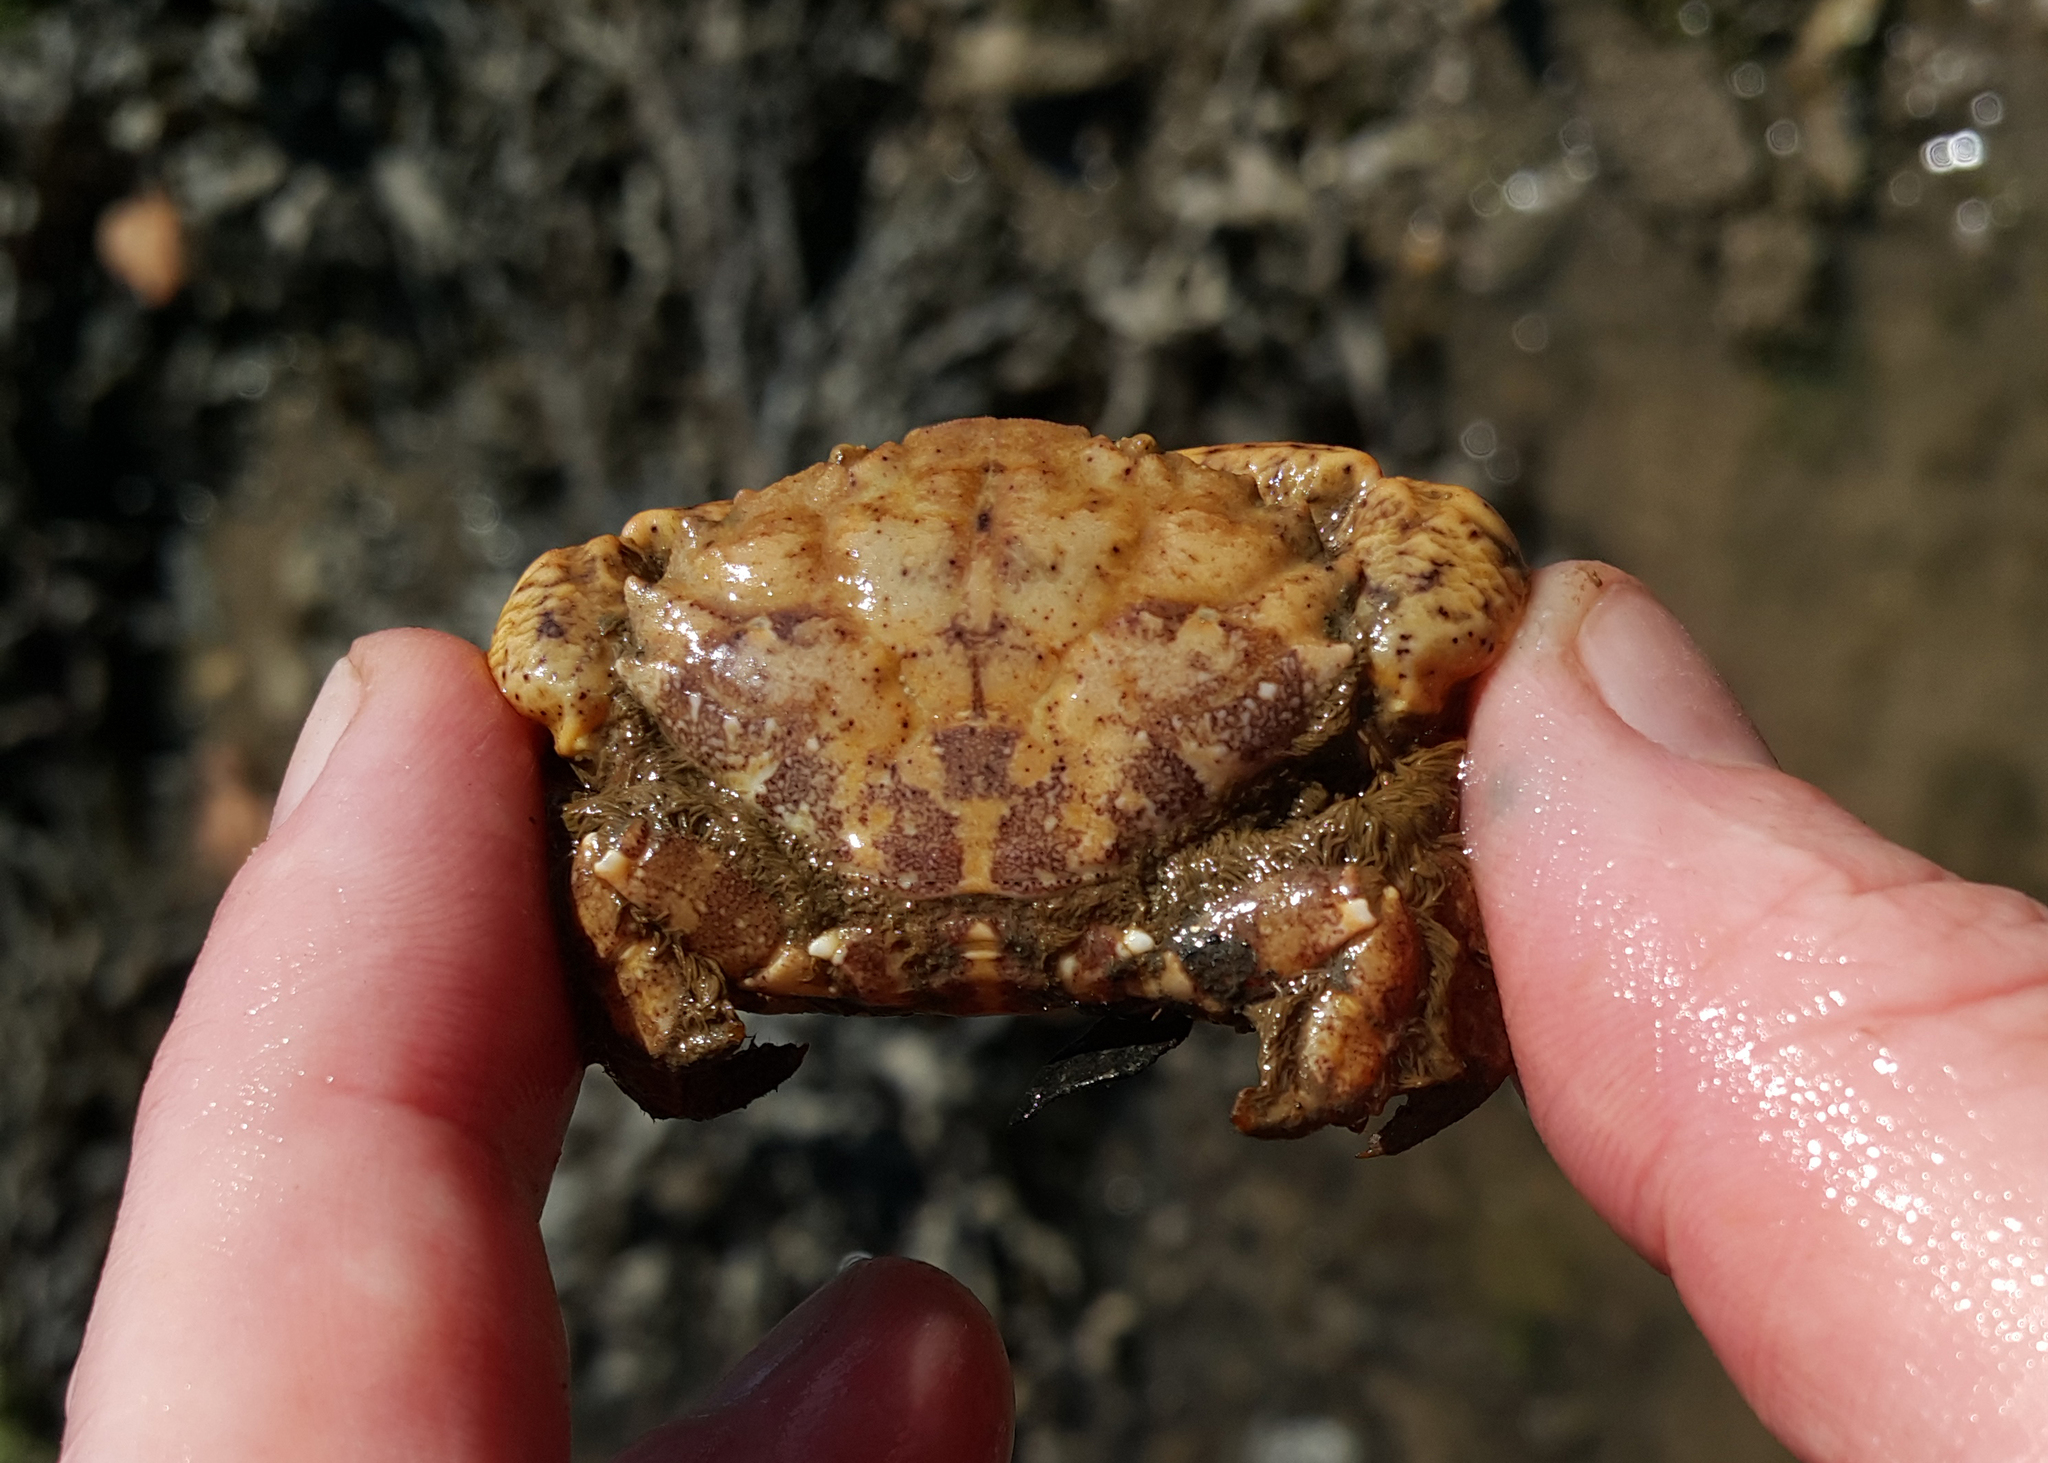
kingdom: Animalia
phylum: Arthropoda
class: Malacostraca
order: Decapoda
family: Xanthidae
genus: Xantho
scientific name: Xantho pilipes
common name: Risso's crab
